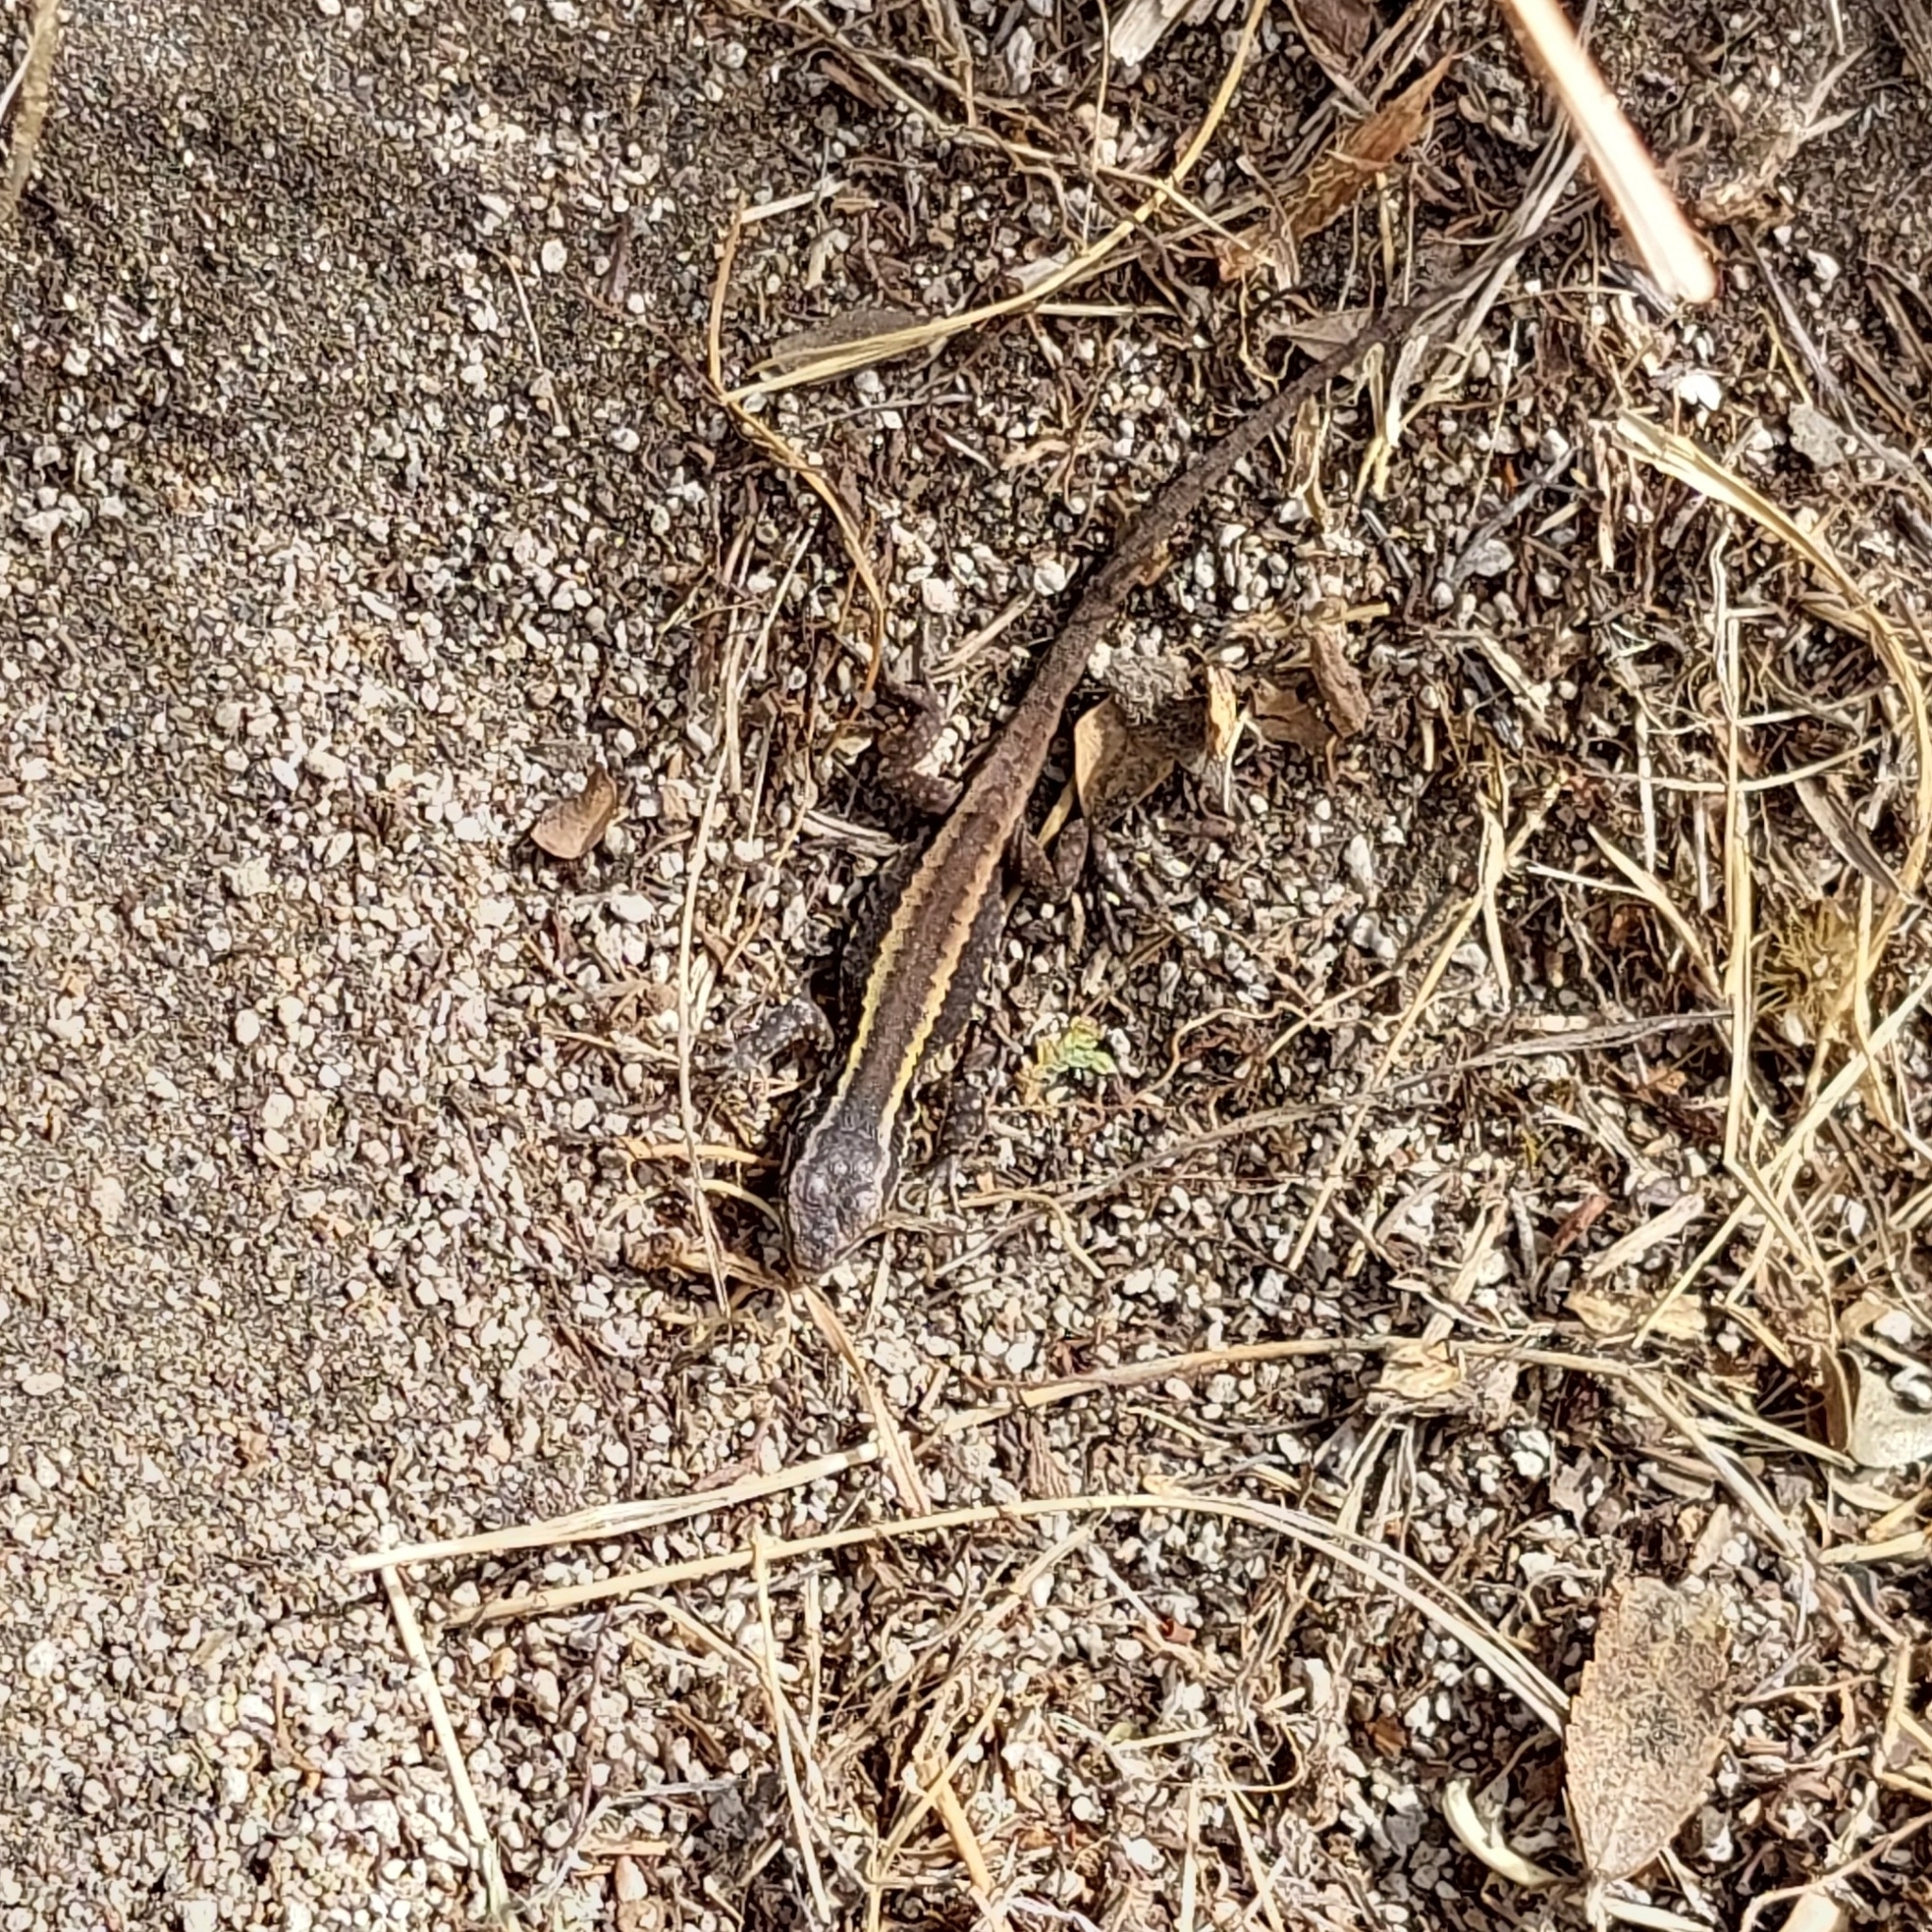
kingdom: Animalia
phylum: Chordata
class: Squamata
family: Liolaemidae
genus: Liolaemus
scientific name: Liolaemus pictus
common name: Painted tree iguana
